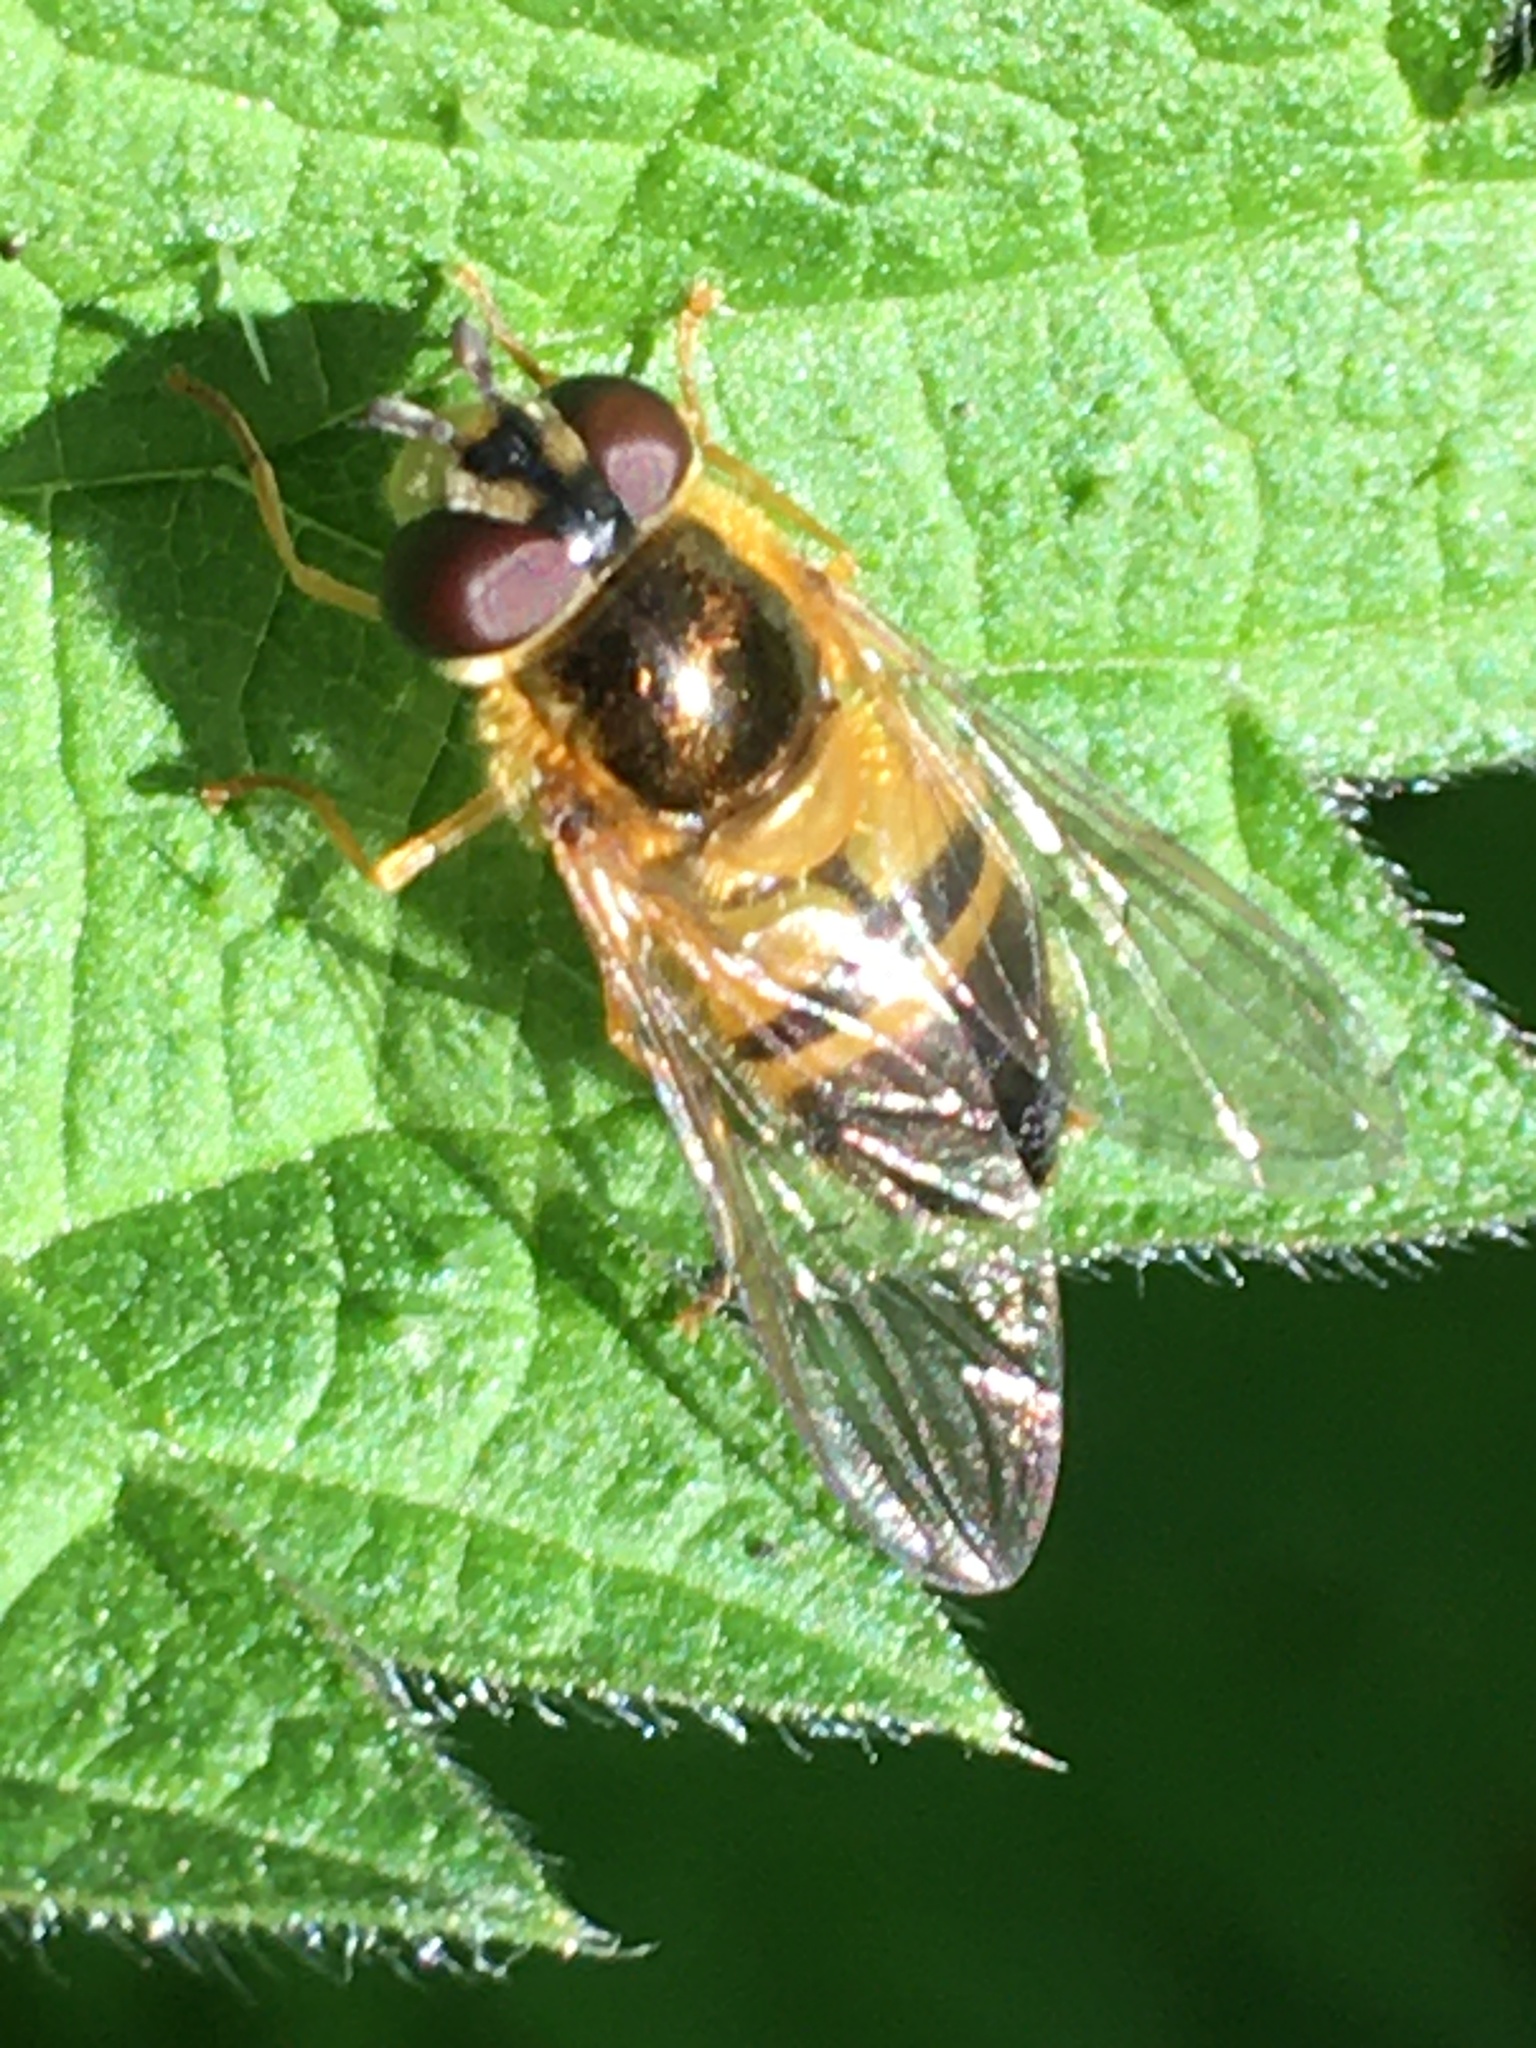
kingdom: Animalia
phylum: Arthropoda
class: Insecta
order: Diptera
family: Syrphidae
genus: Epistrophe
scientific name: Epistrophe eligans
